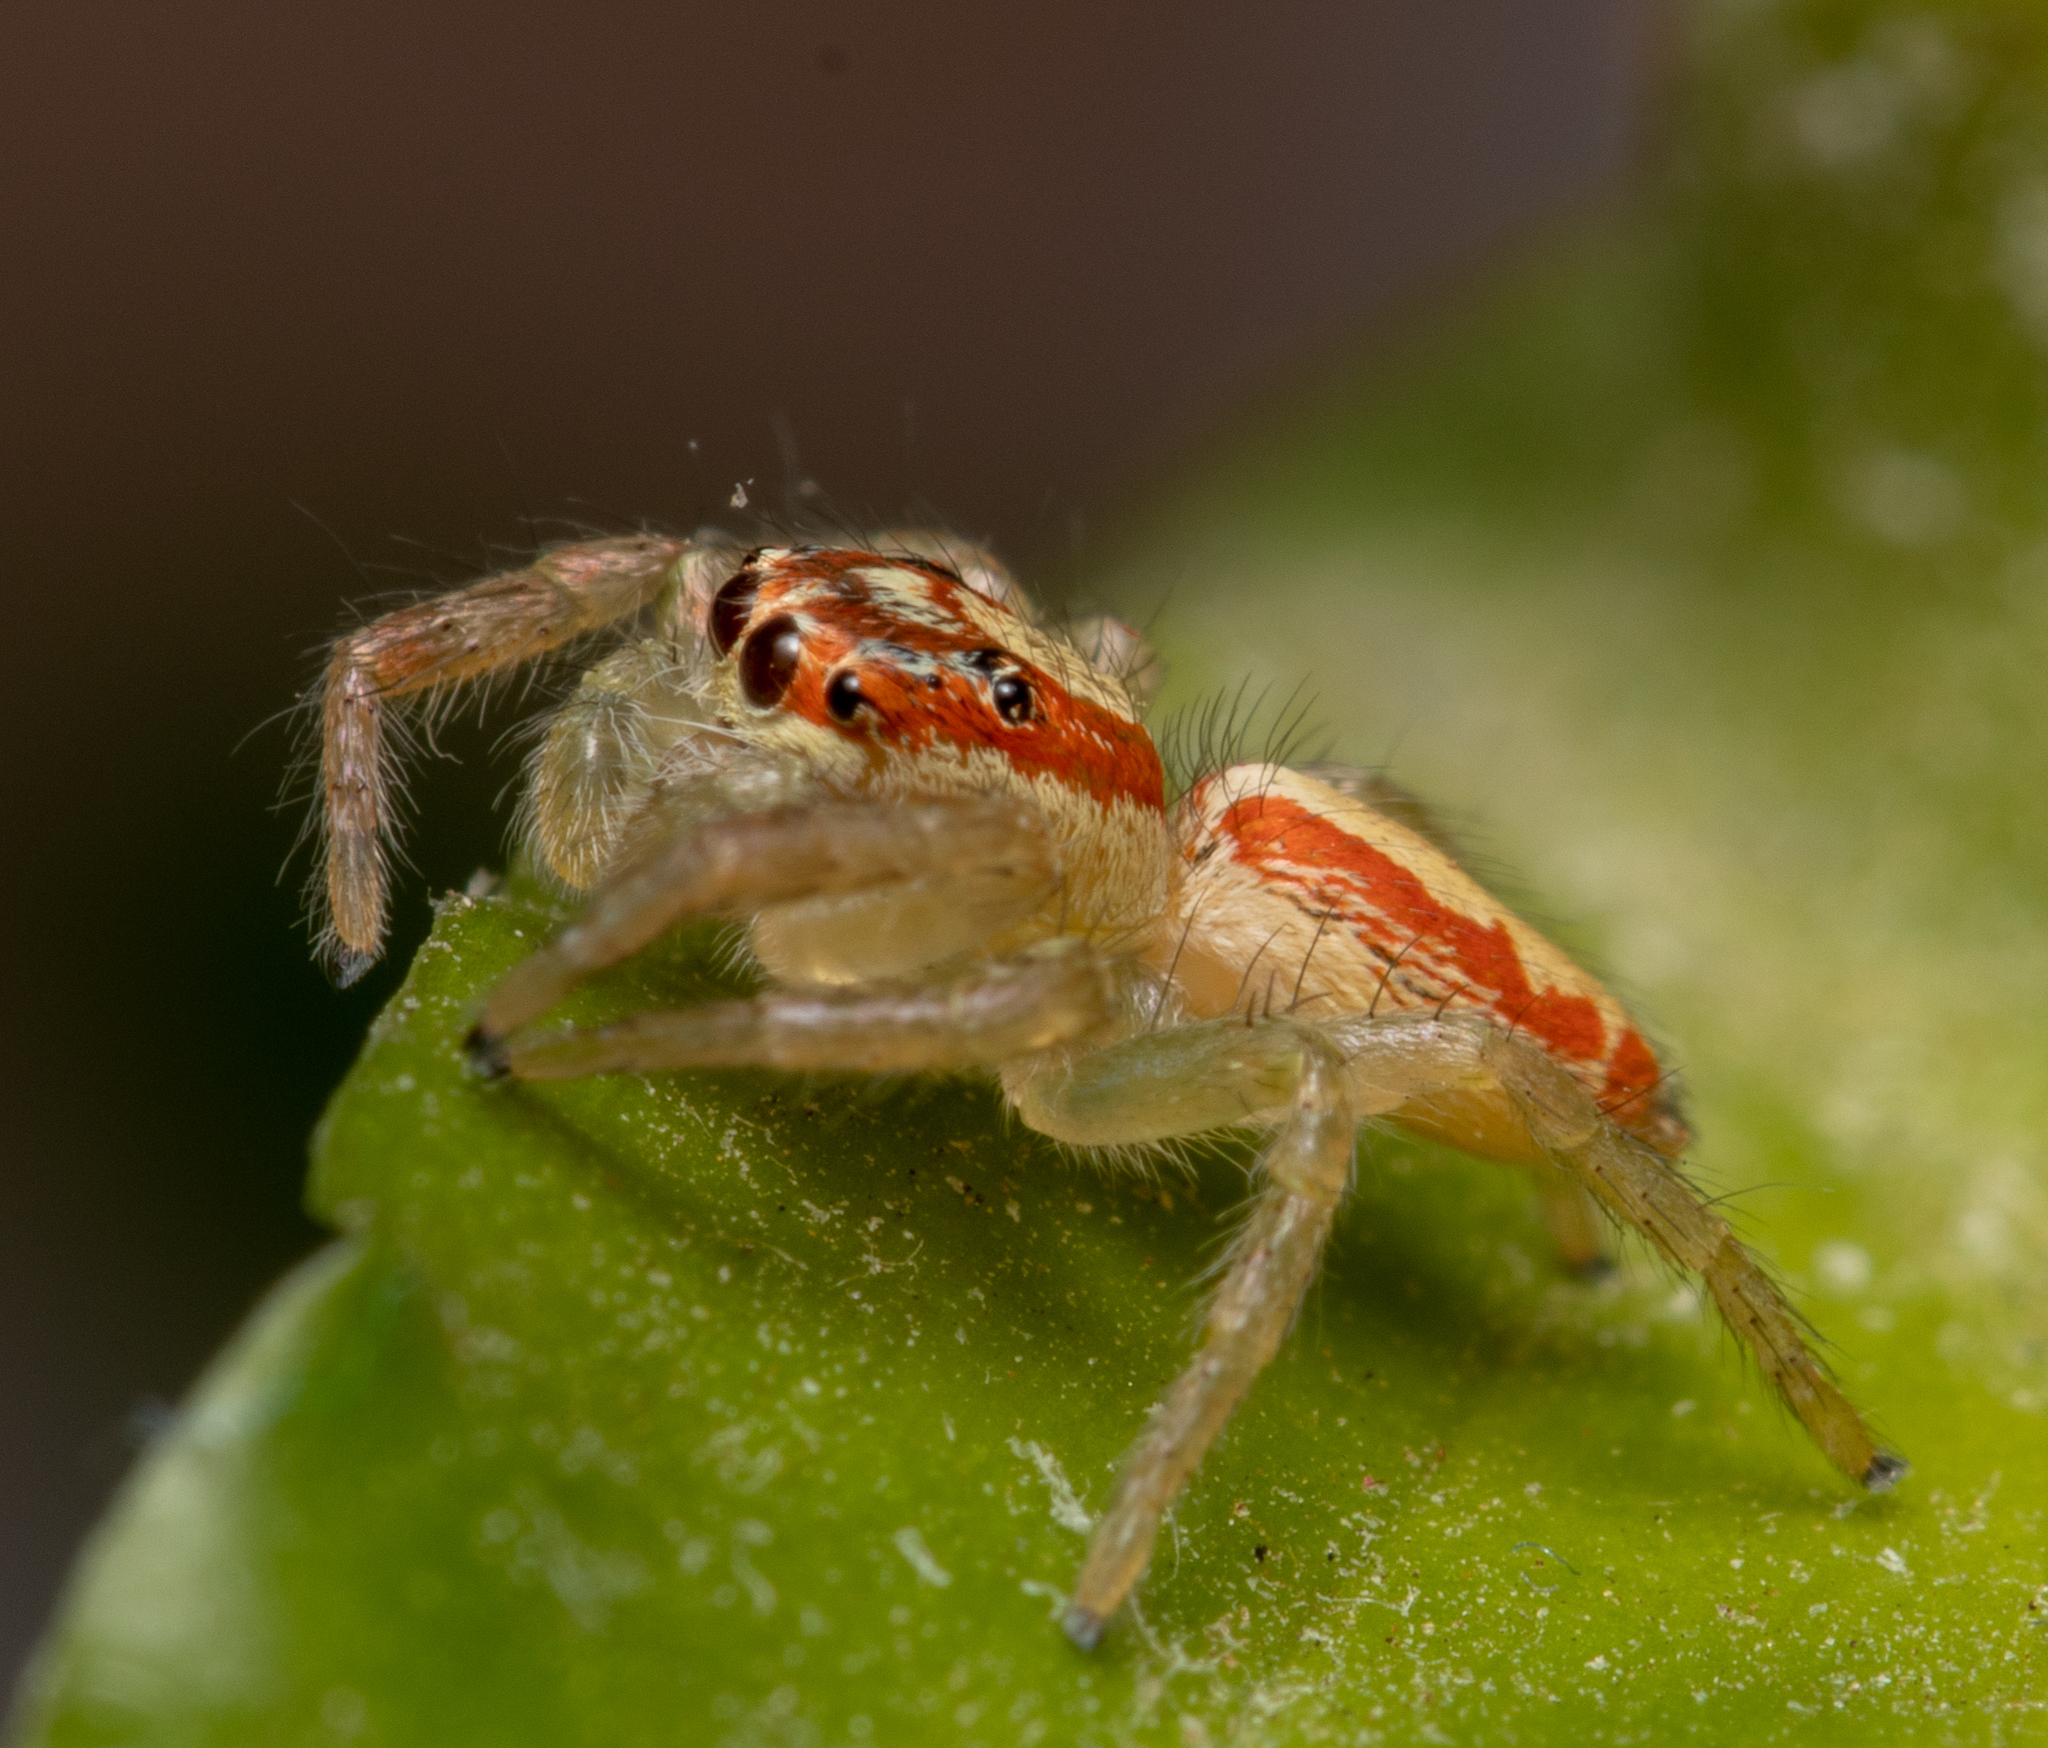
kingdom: Animalia
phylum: Arthropoda
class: Arachnida
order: Araneae
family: Salticidae
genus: Cytaea
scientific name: Cytaea alburna
